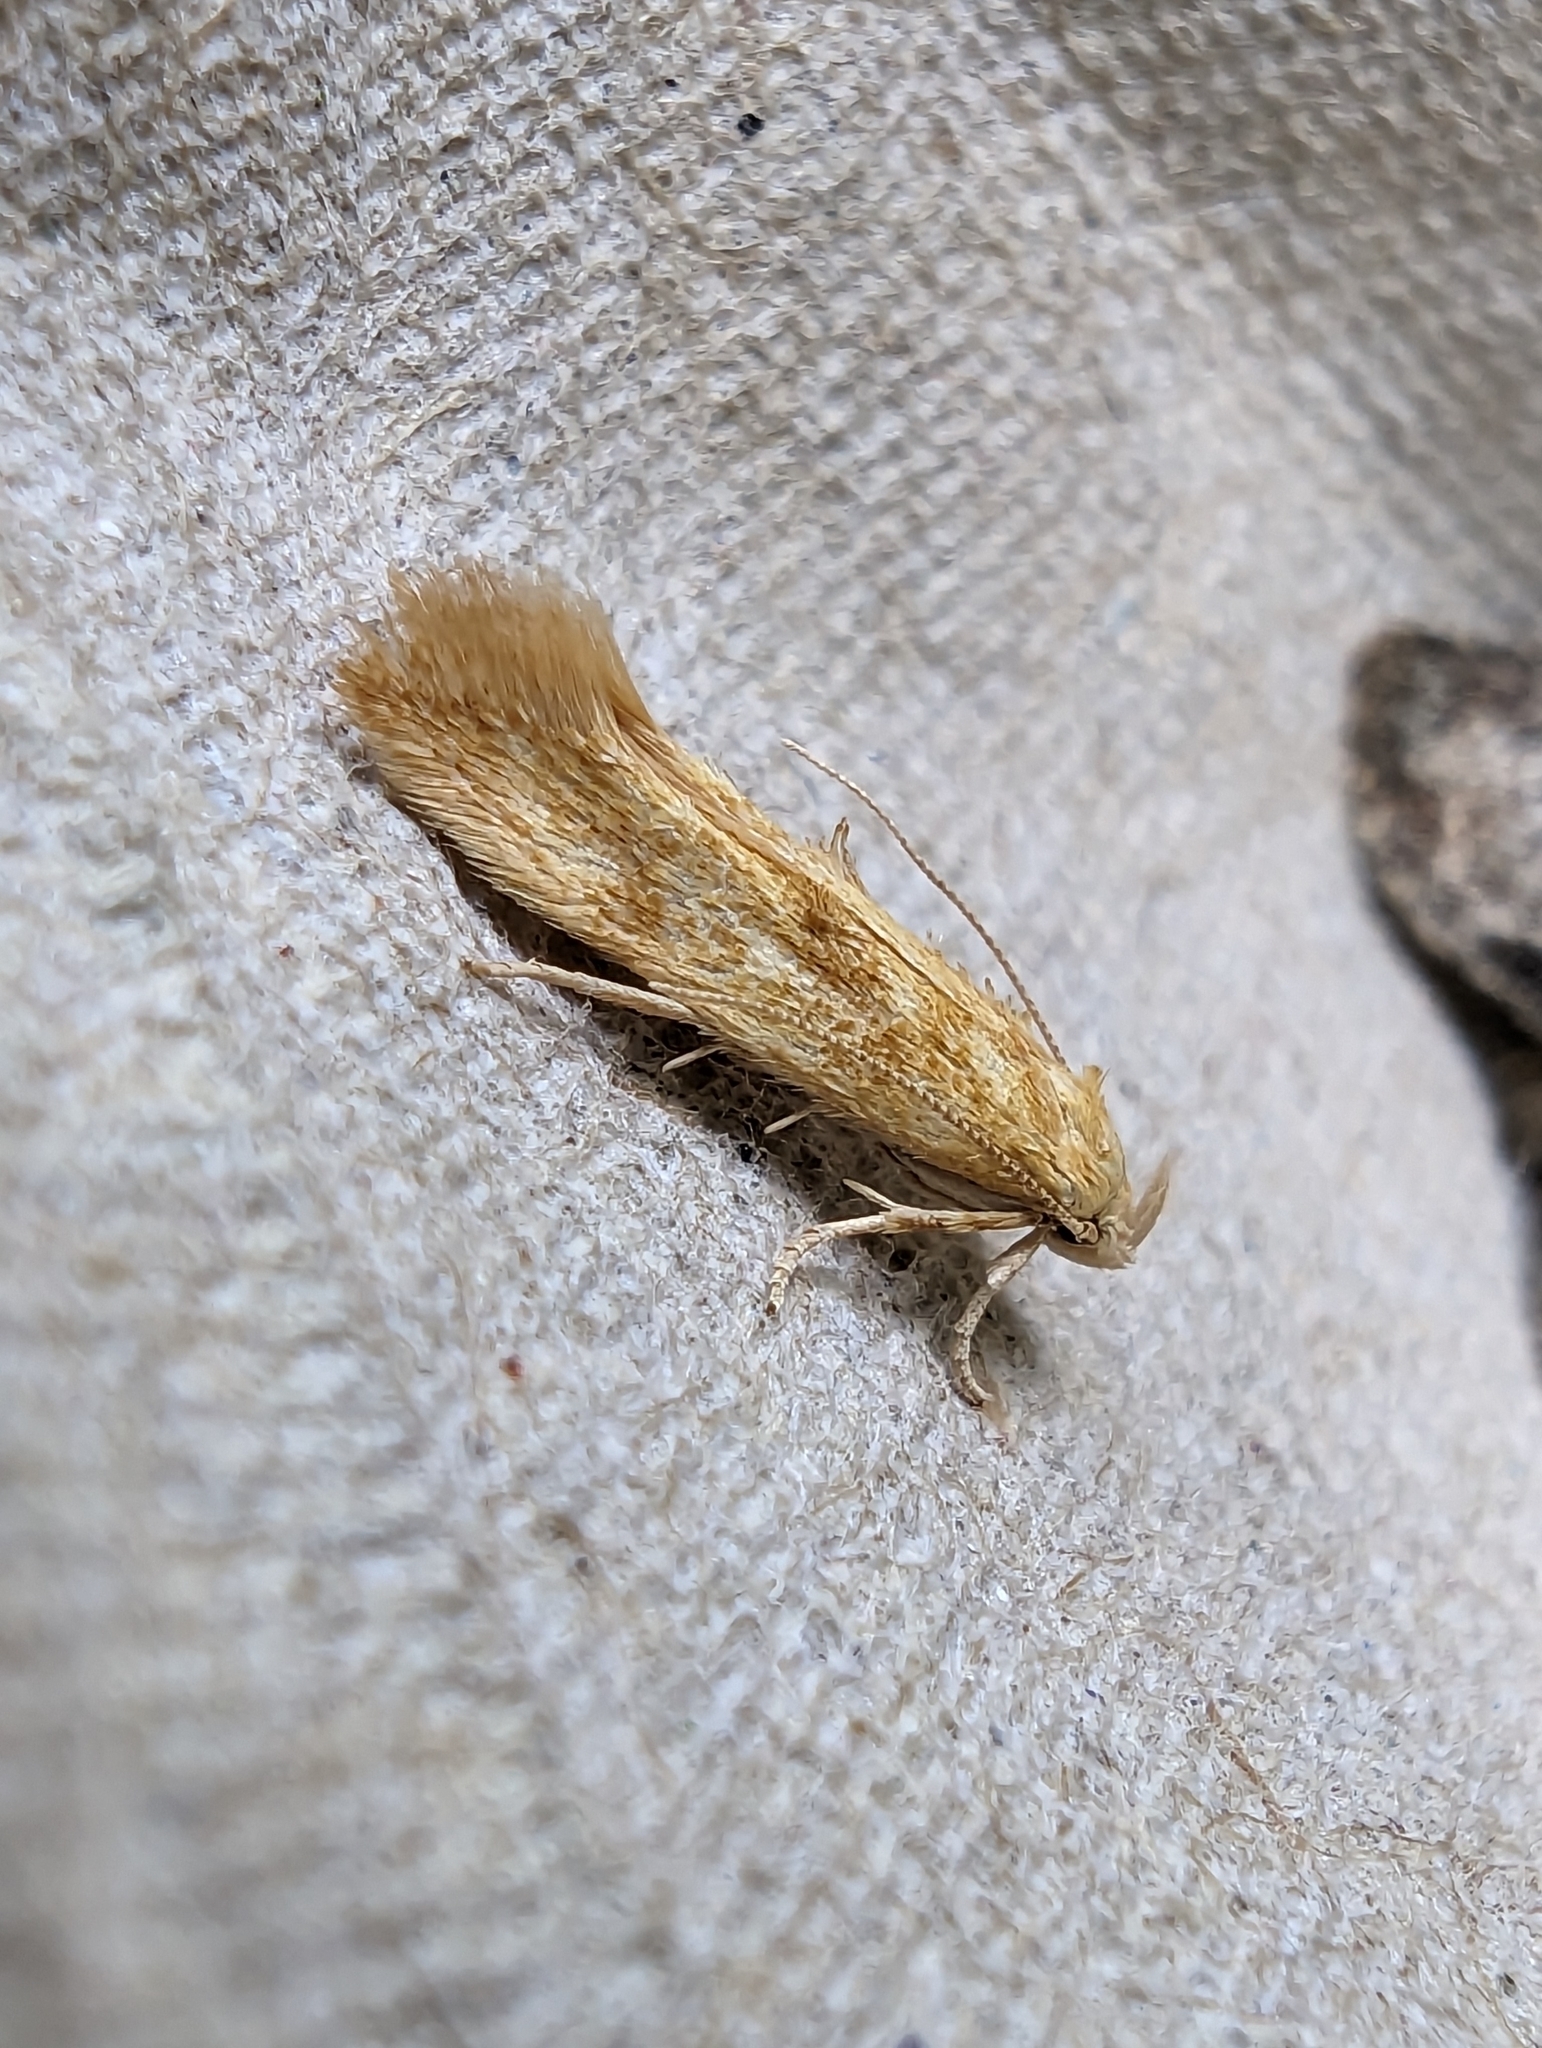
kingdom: Animalia
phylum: Arthropoda
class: Insecta
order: Lepidoptera
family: Momphidae
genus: Mompha
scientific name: Mompha ochraceella
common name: Buff cosmet
